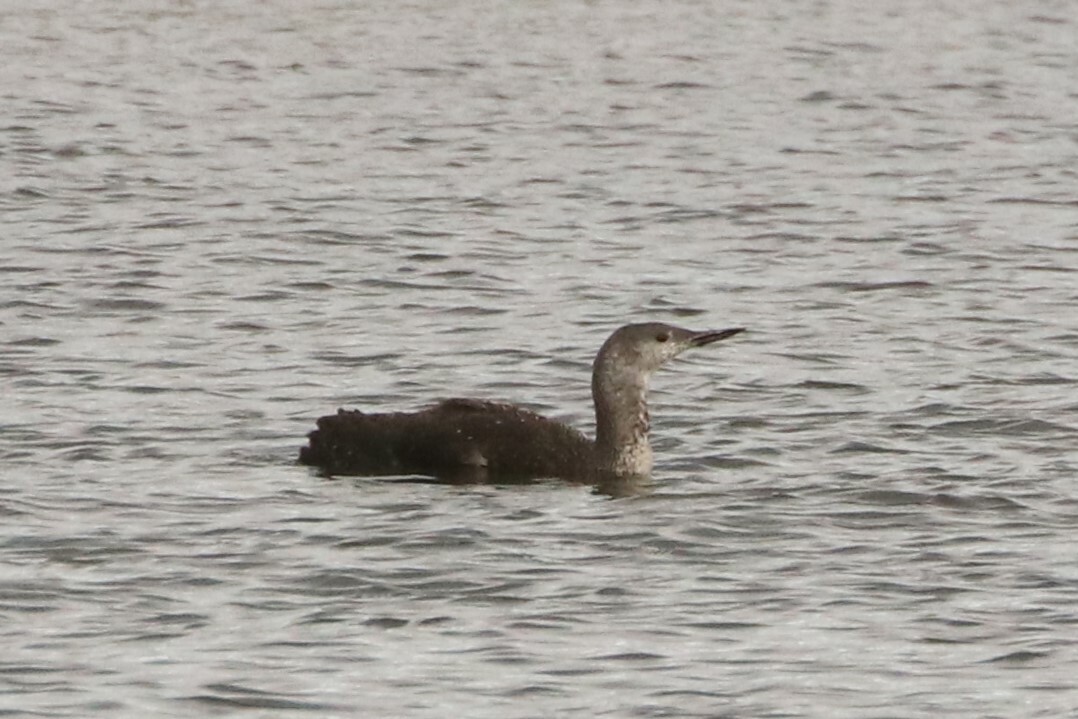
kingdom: Animalia
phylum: Chordata
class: Aves
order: Gaviiformes
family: Gaviidae
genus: Gavia
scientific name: Gavia stellata
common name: Red-throated loon
